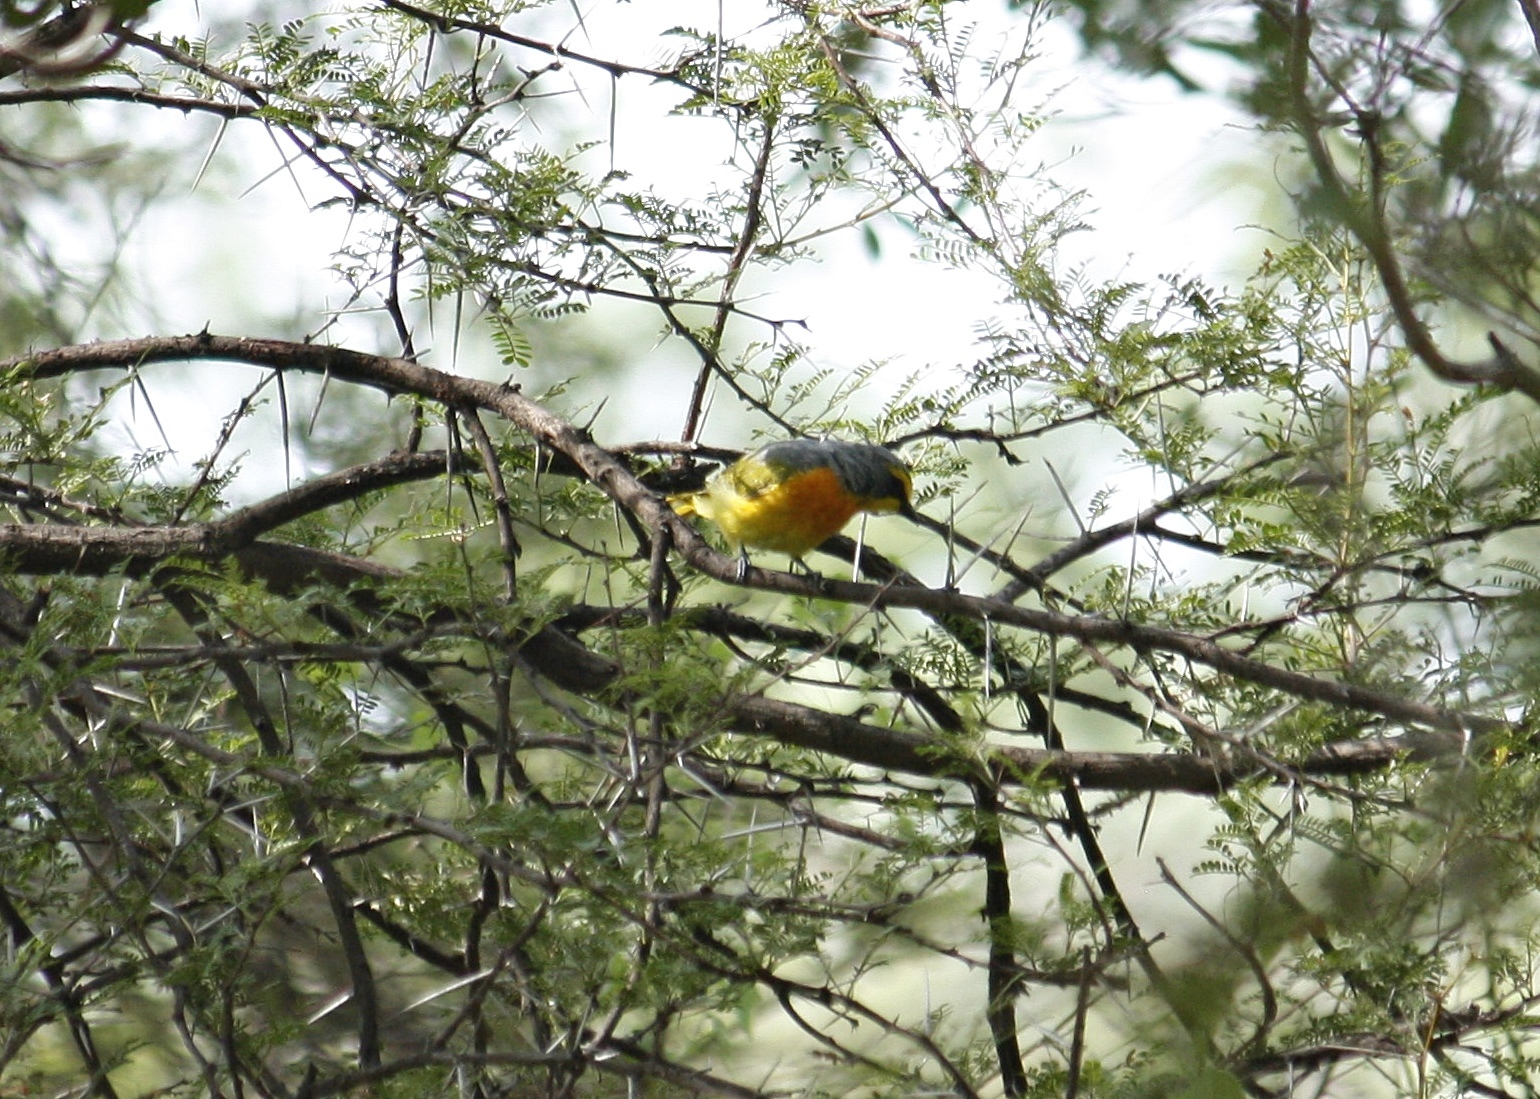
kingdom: Animalia
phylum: Chordata
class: Aves
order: Passeriformes
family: Malaconotidae
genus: Chlorophoneus
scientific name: Chlorophoneus sulfureopectus
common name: Orange-breasted bushshrike
